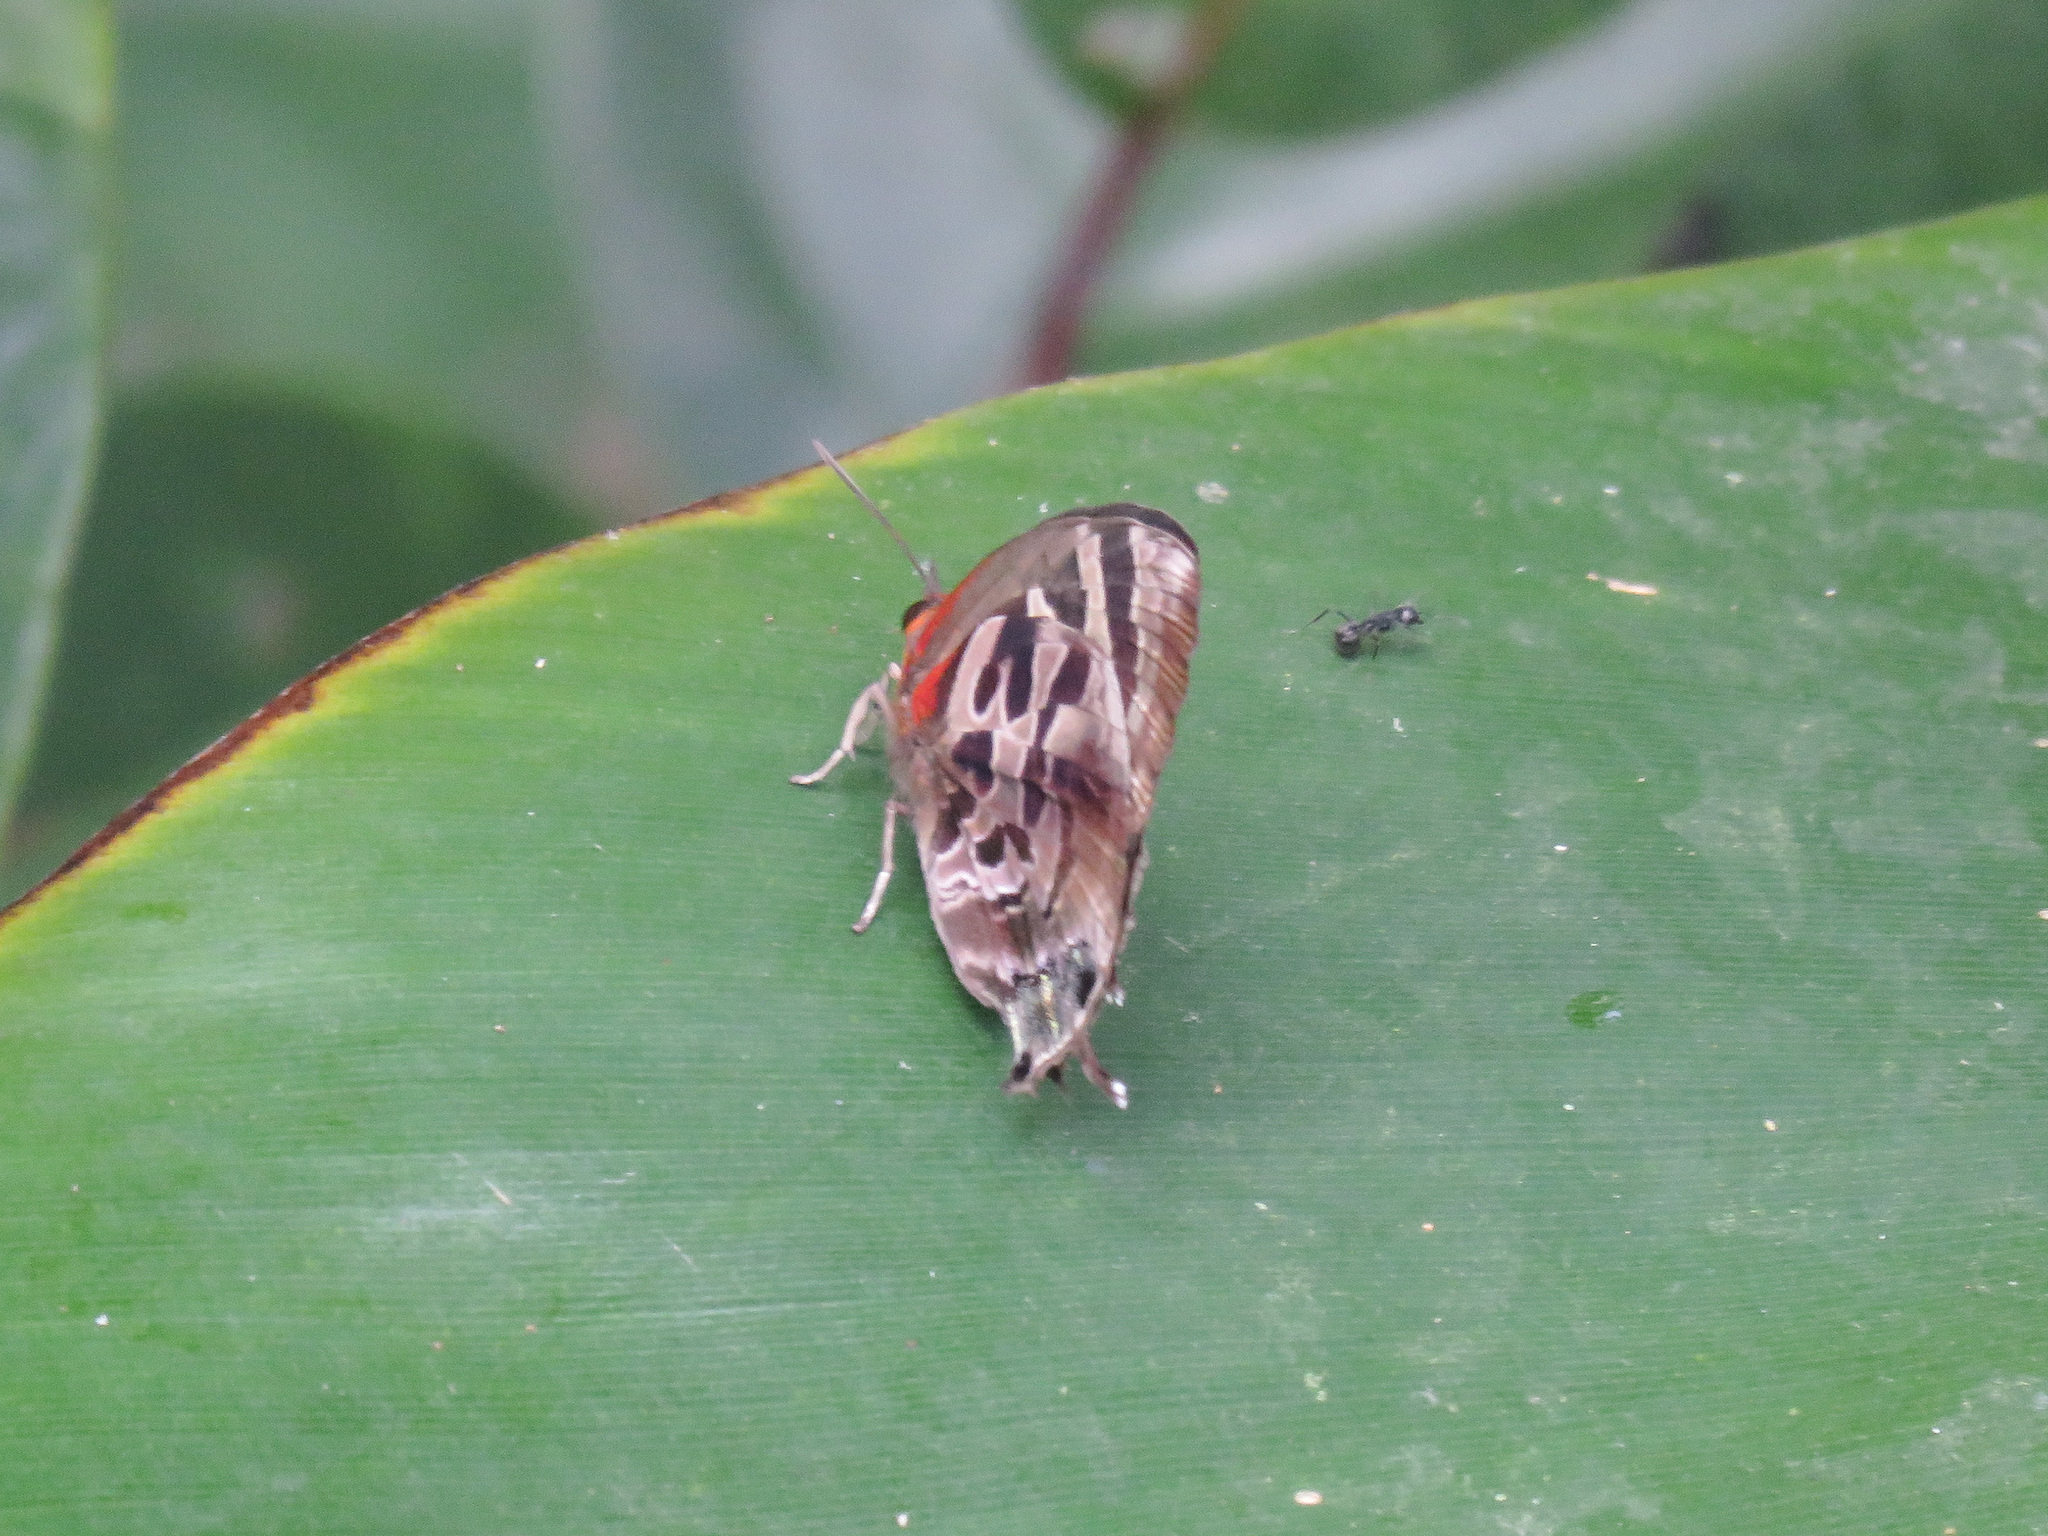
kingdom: Animalia
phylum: Arthropoda
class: Insecta
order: Lepidoptera
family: Lycaenidae
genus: Flos
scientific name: Flos
